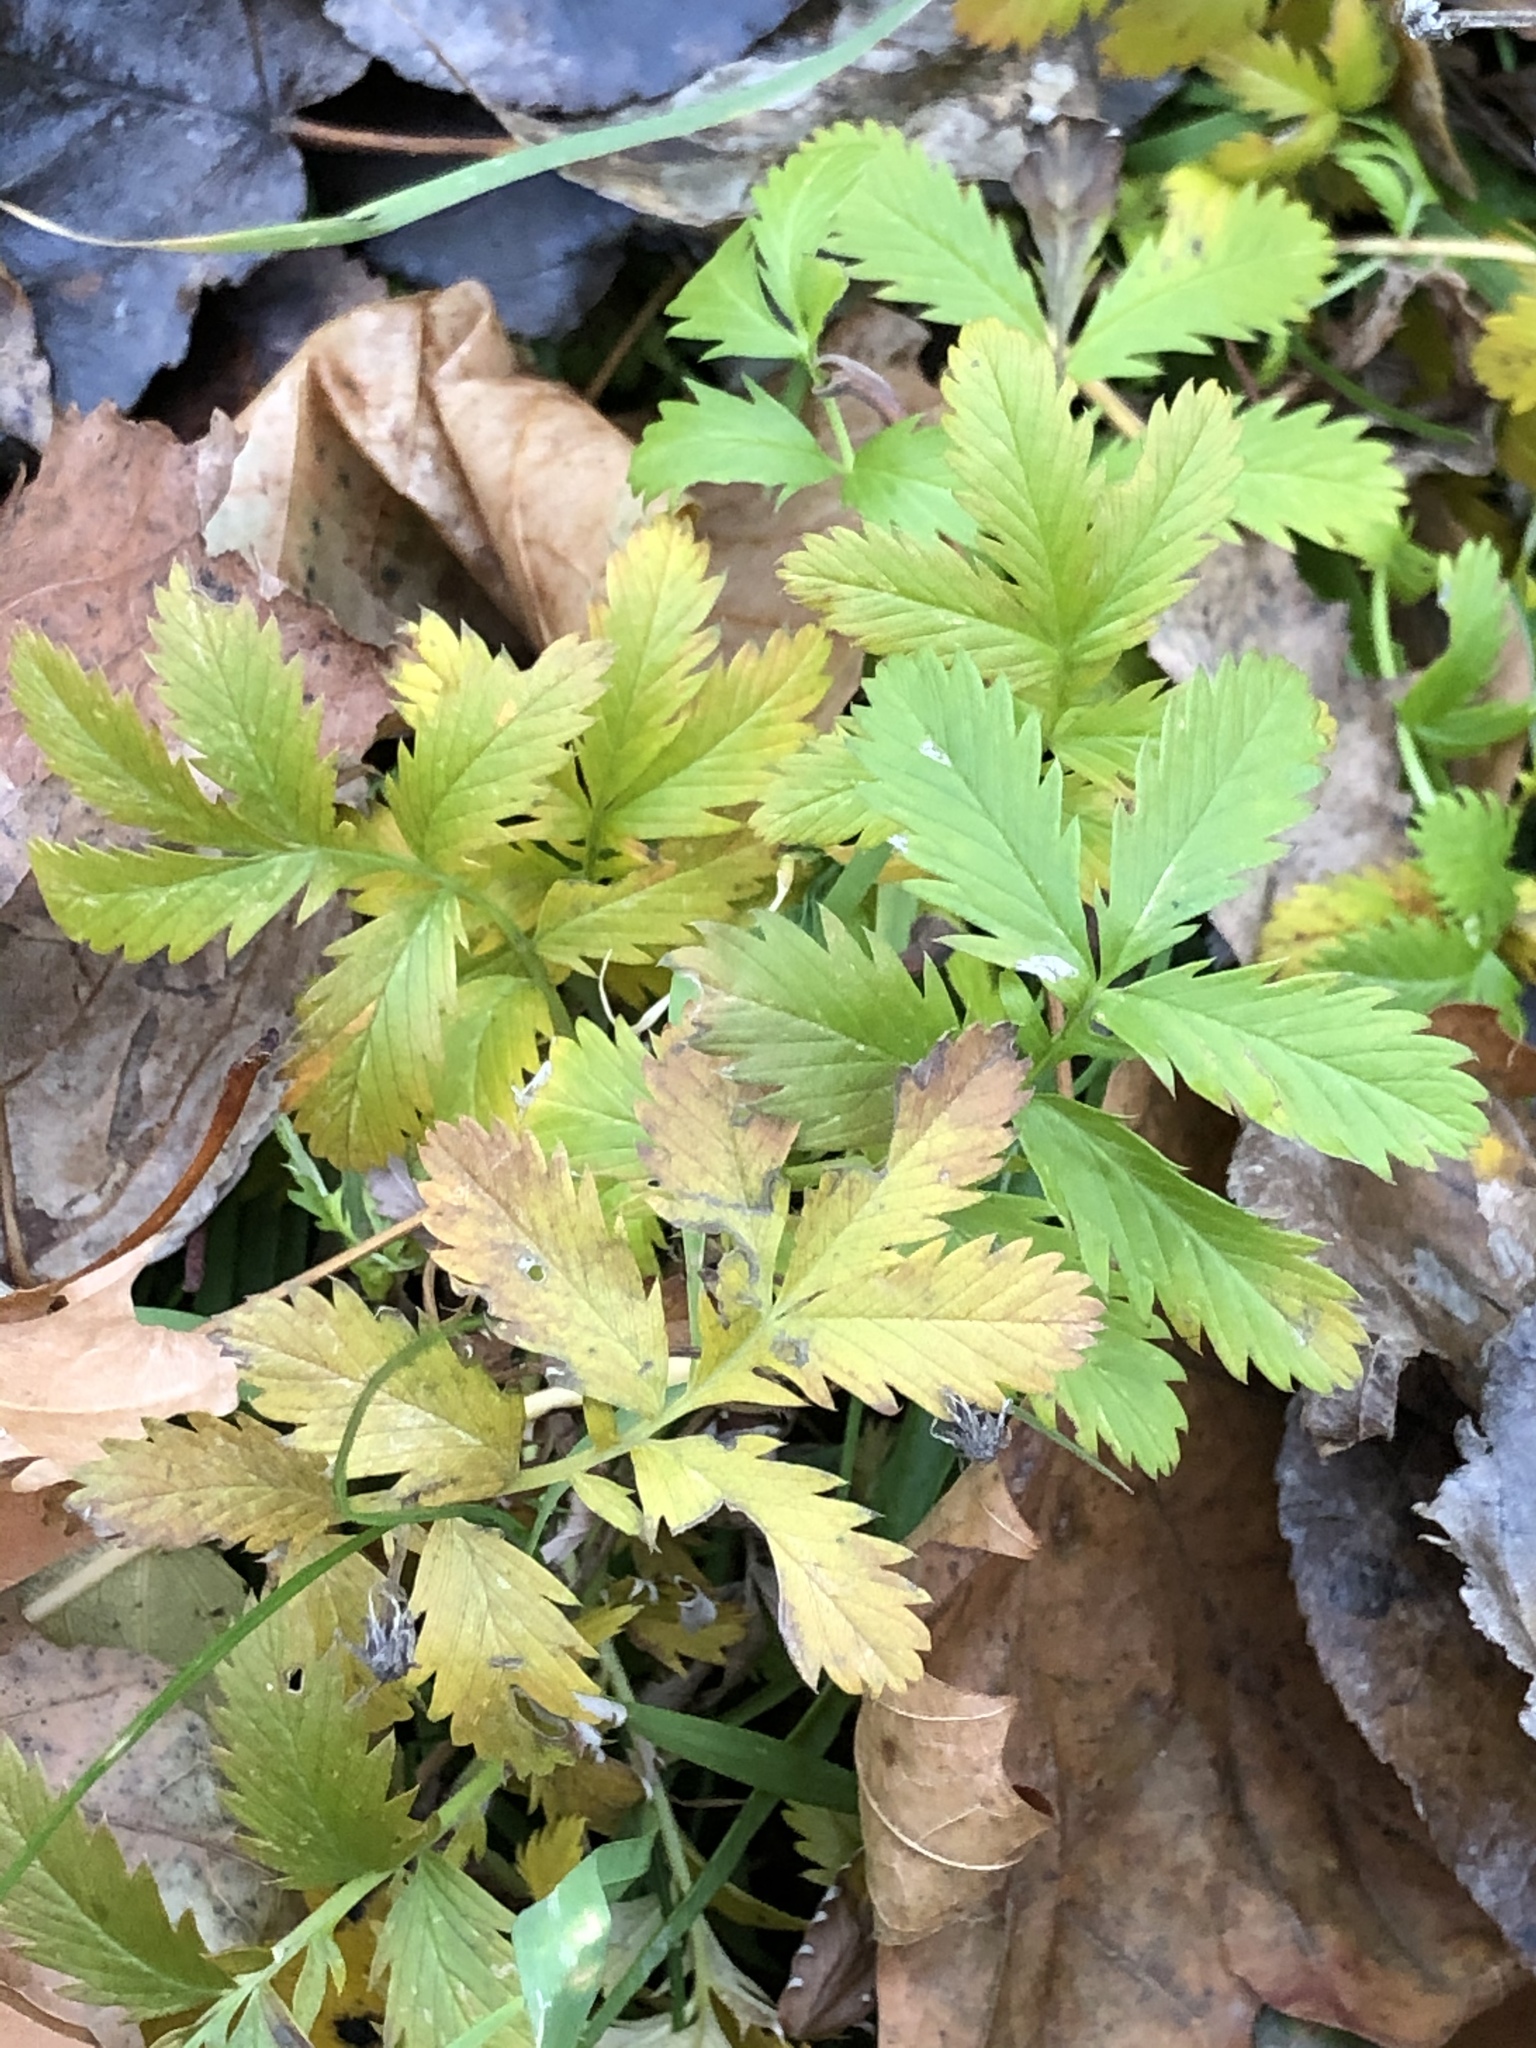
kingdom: Plantae
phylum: Tracheophyta
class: Magnoliopsida
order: Rosales
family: Rosaceae
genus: Argentina
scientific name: Argentina anserina
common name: Common silverweed
